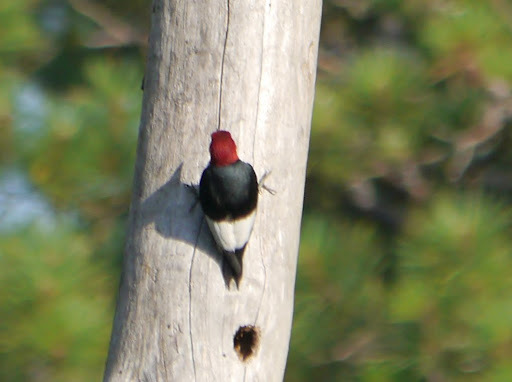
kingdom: Animalia
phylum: Chordata
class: Aves
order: Piciformes
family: Picidae
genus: Melanerpes
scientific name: Melanerpes erythrocephalus
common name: Red-headed woodpecker
